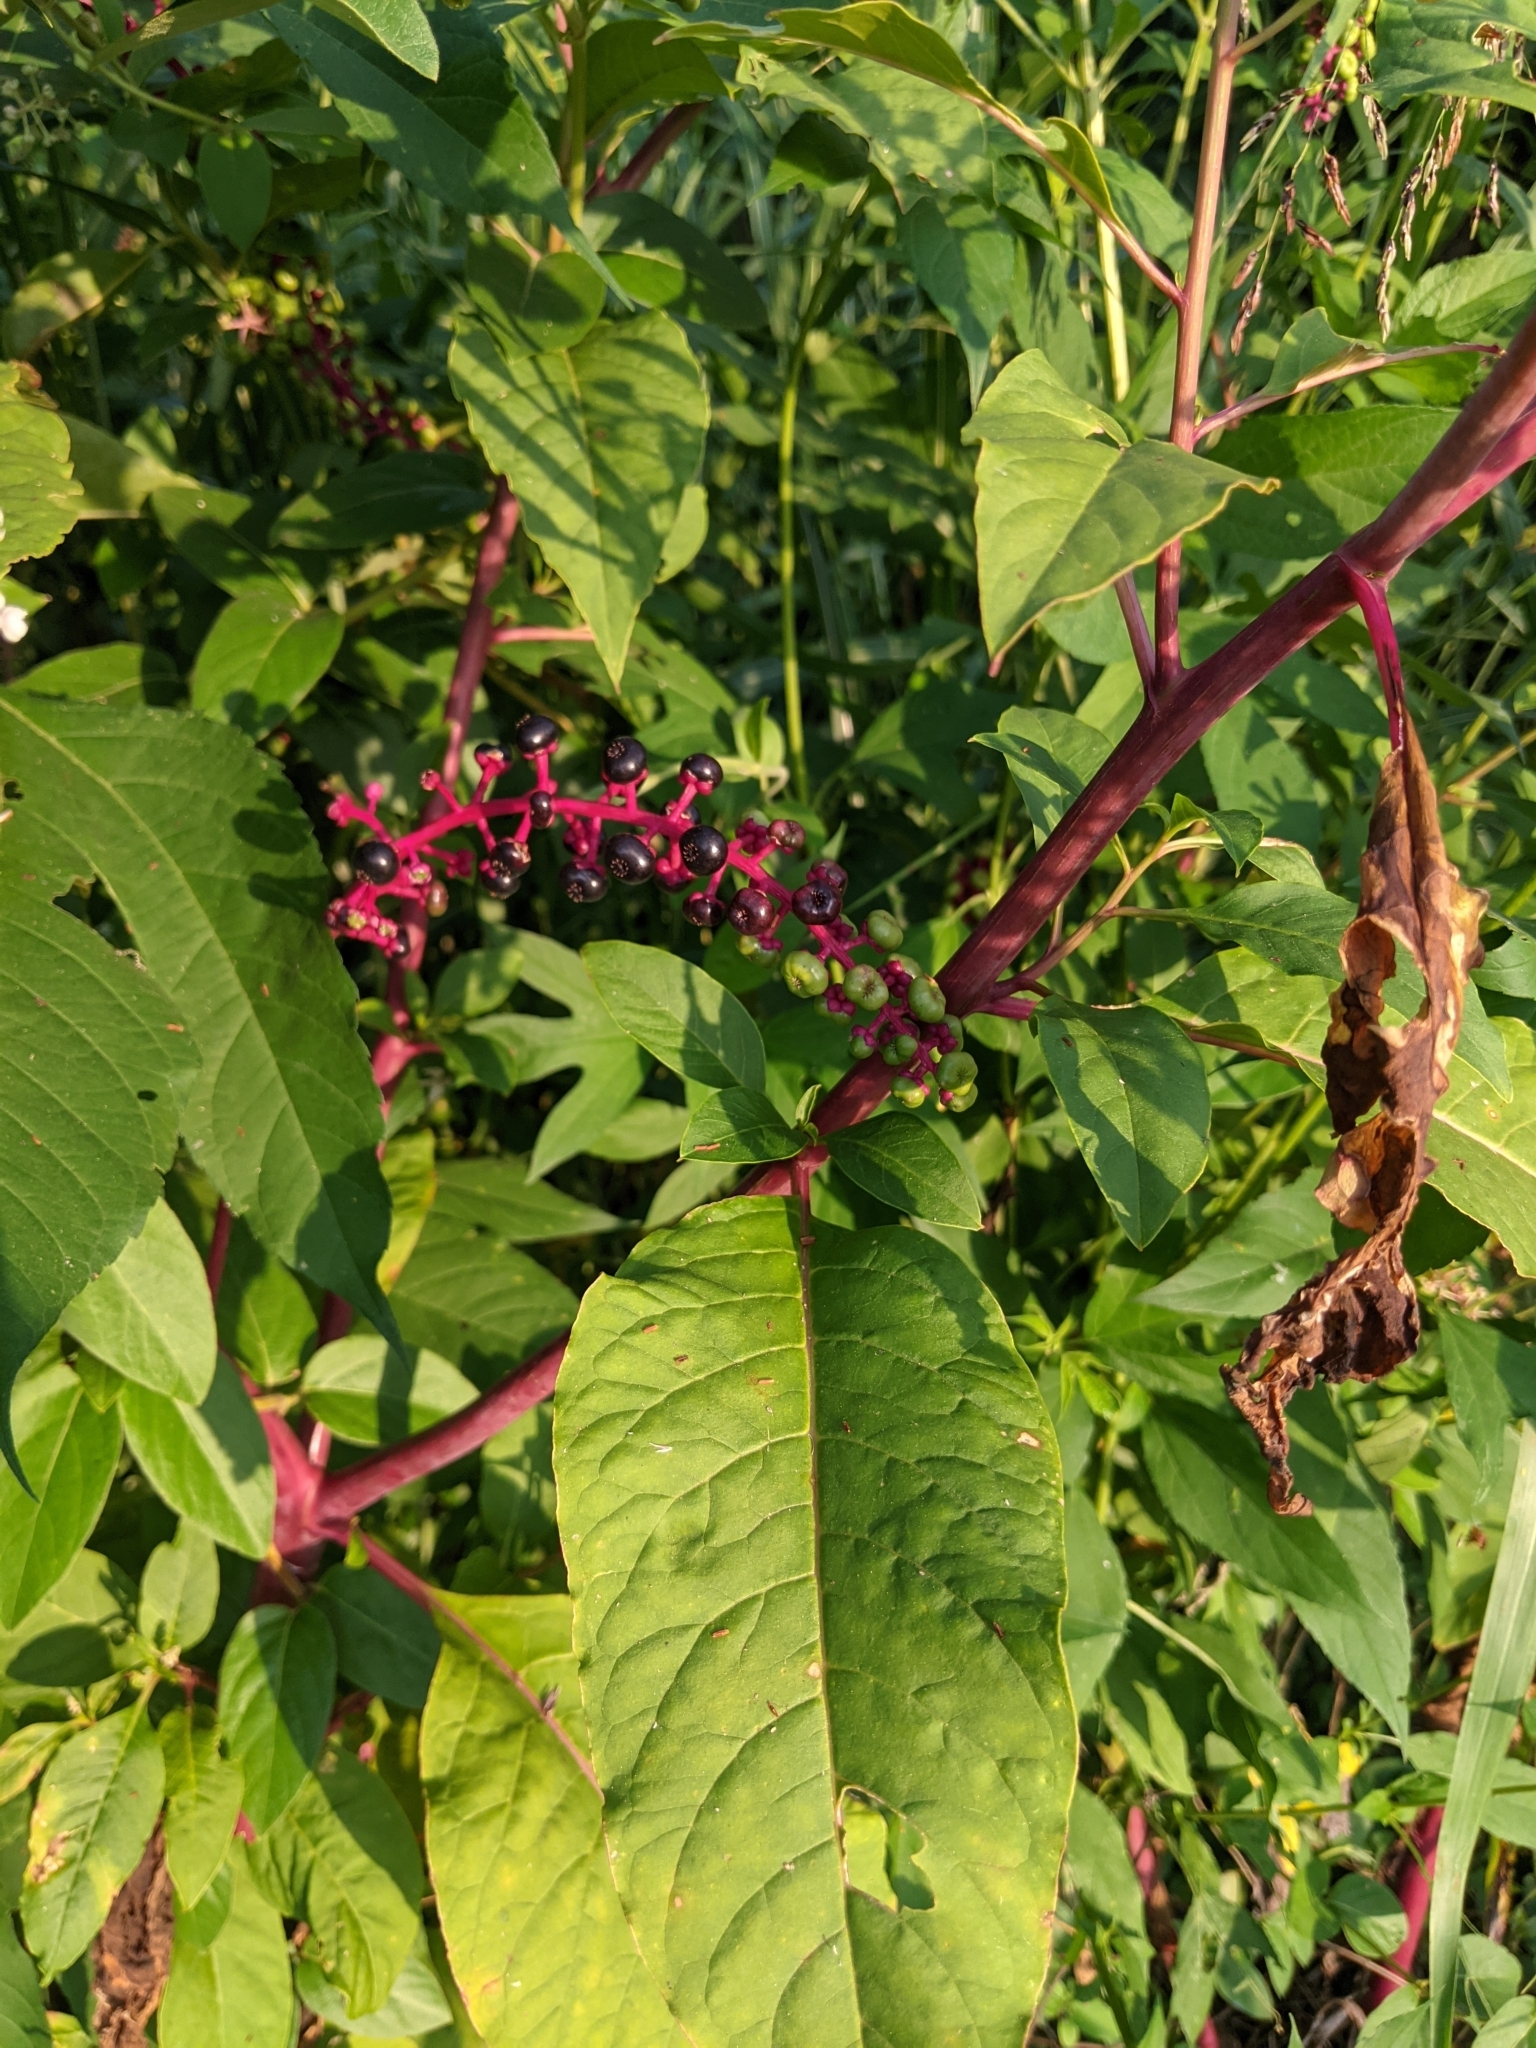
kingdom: Plantae
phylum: Tracheophyta
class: Magnoliopsida
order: Caryophyllales
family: Phytolaccaceae
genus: Phytolacca
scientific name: Phytolacca americana
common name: American pokeweed
